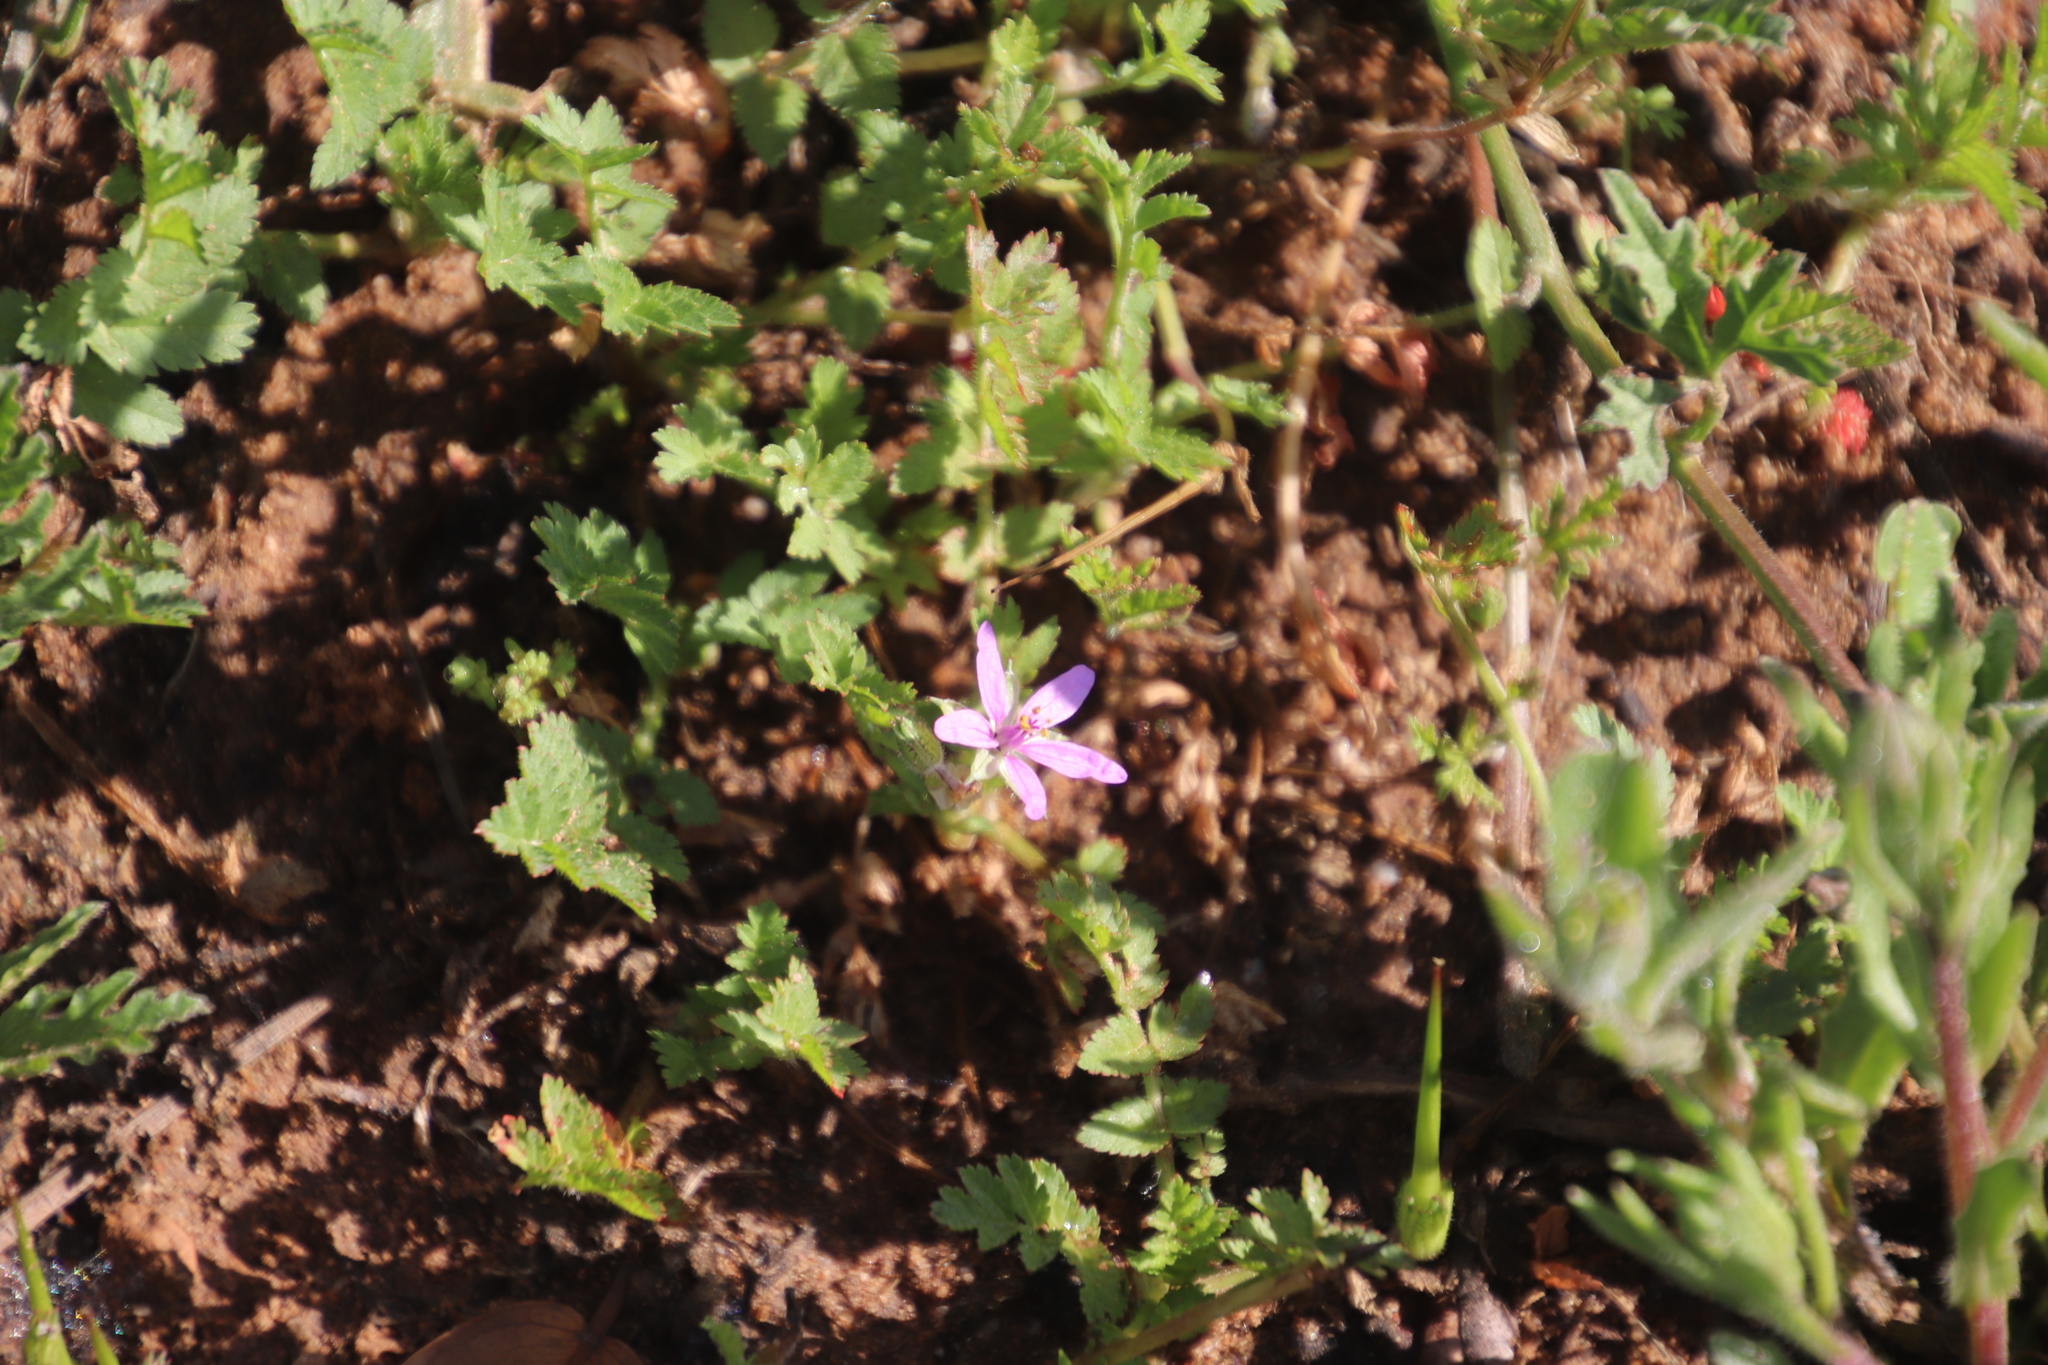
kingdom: Plantae
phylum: Tracheophyta
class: Magnoliopsida
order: Geraniales
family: Geraniaceae
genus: Erodium
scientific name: Erodium moschatum
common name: Musk stork's-bill
